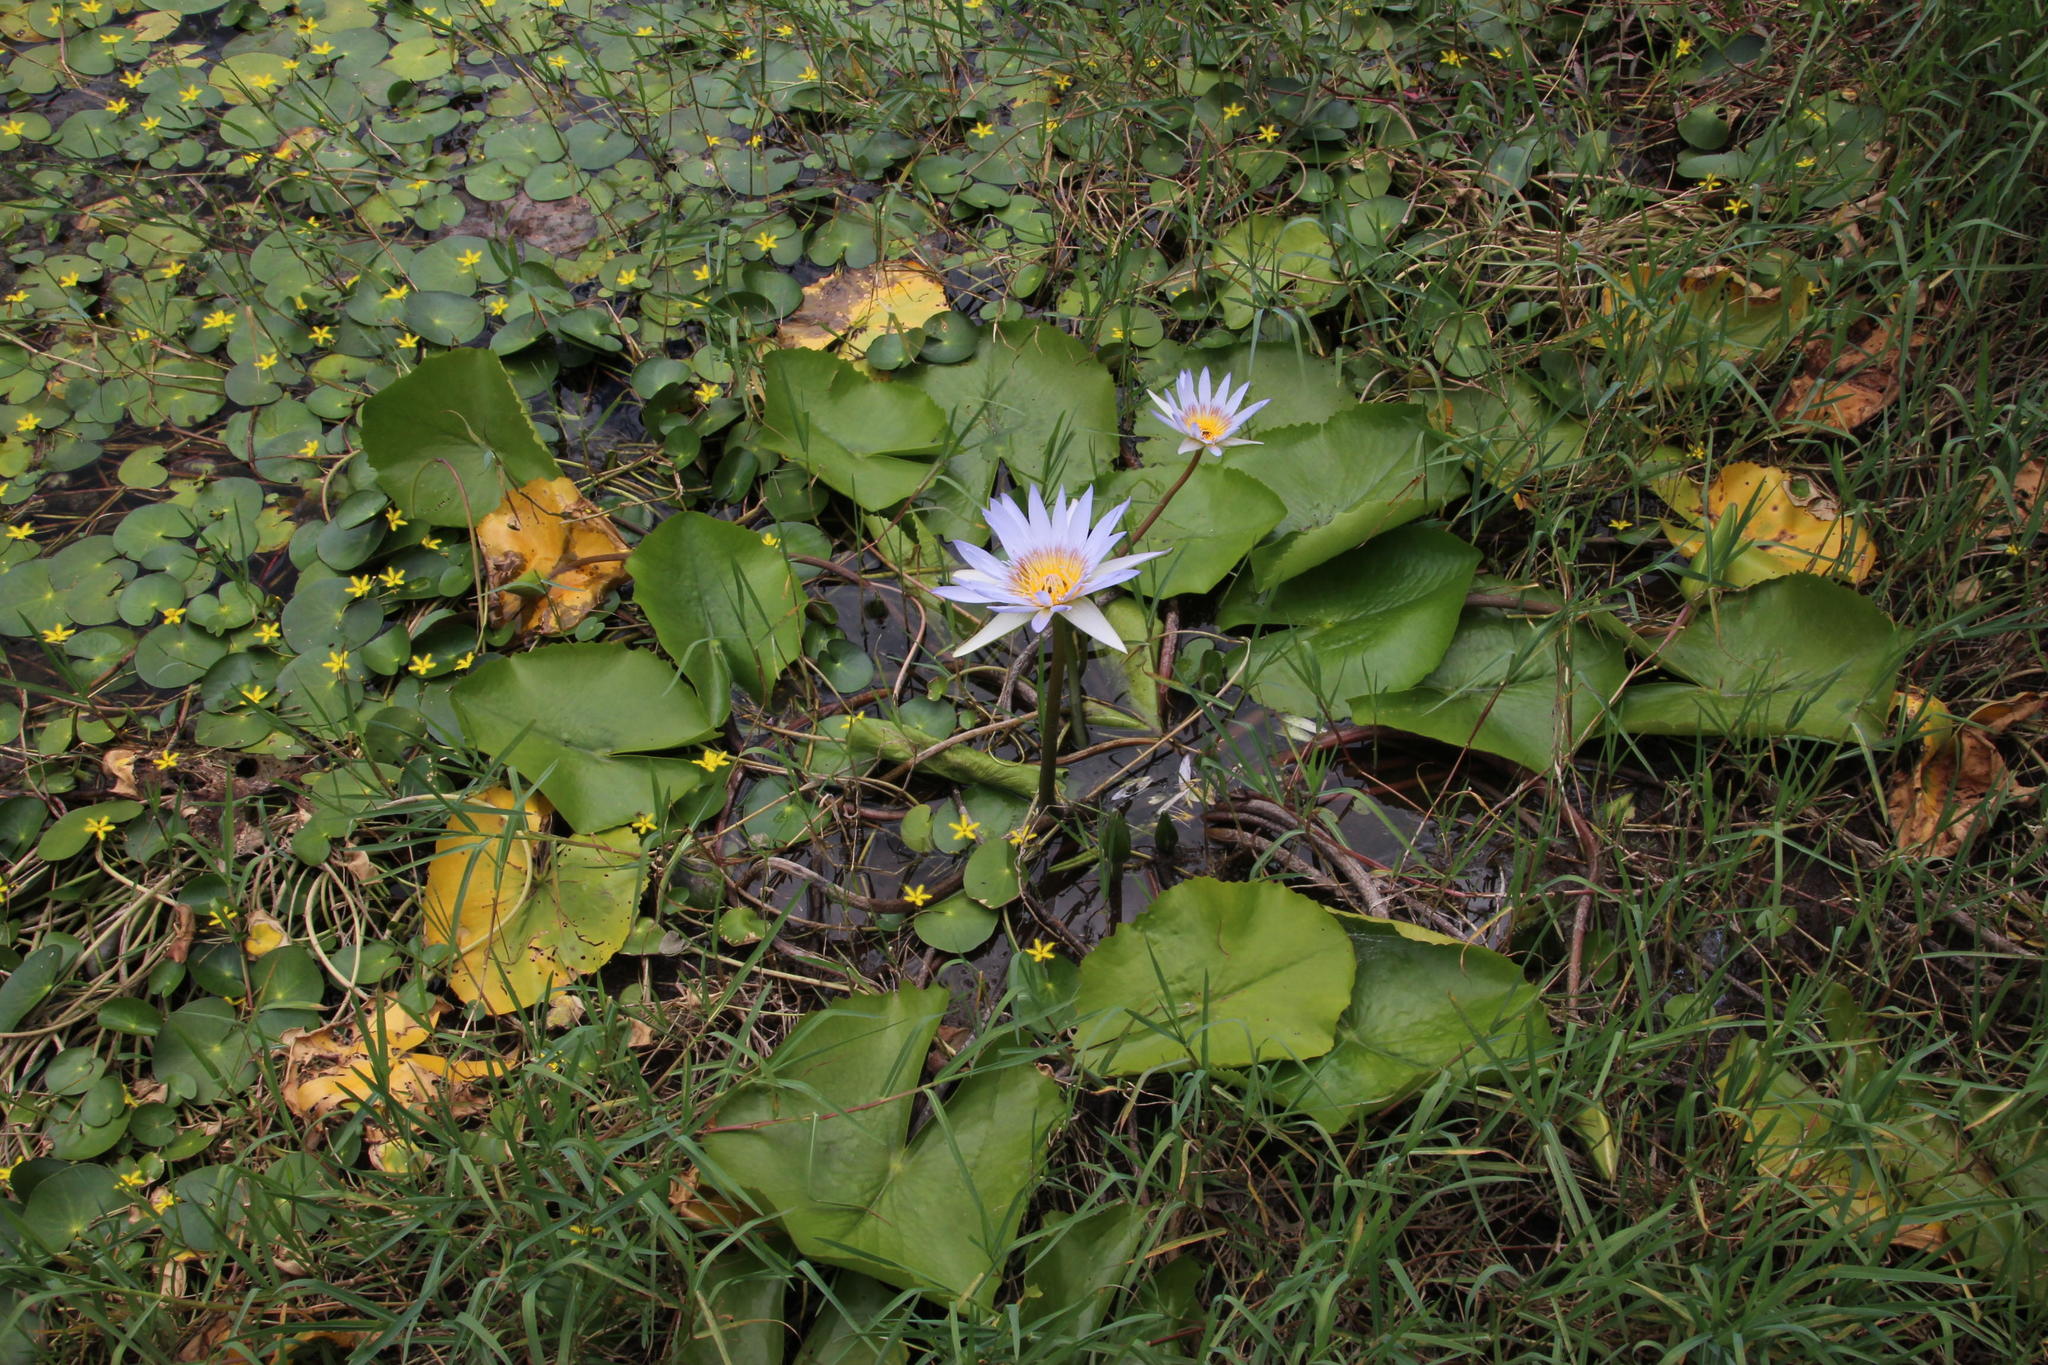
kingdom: Plantae
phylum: Tracheophyta
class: Magnoliopsida
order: Nymphaeales
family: Nymphaeaceae
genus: Nymphaea
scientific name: Nymphaea nouchali
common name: Blue lotus
